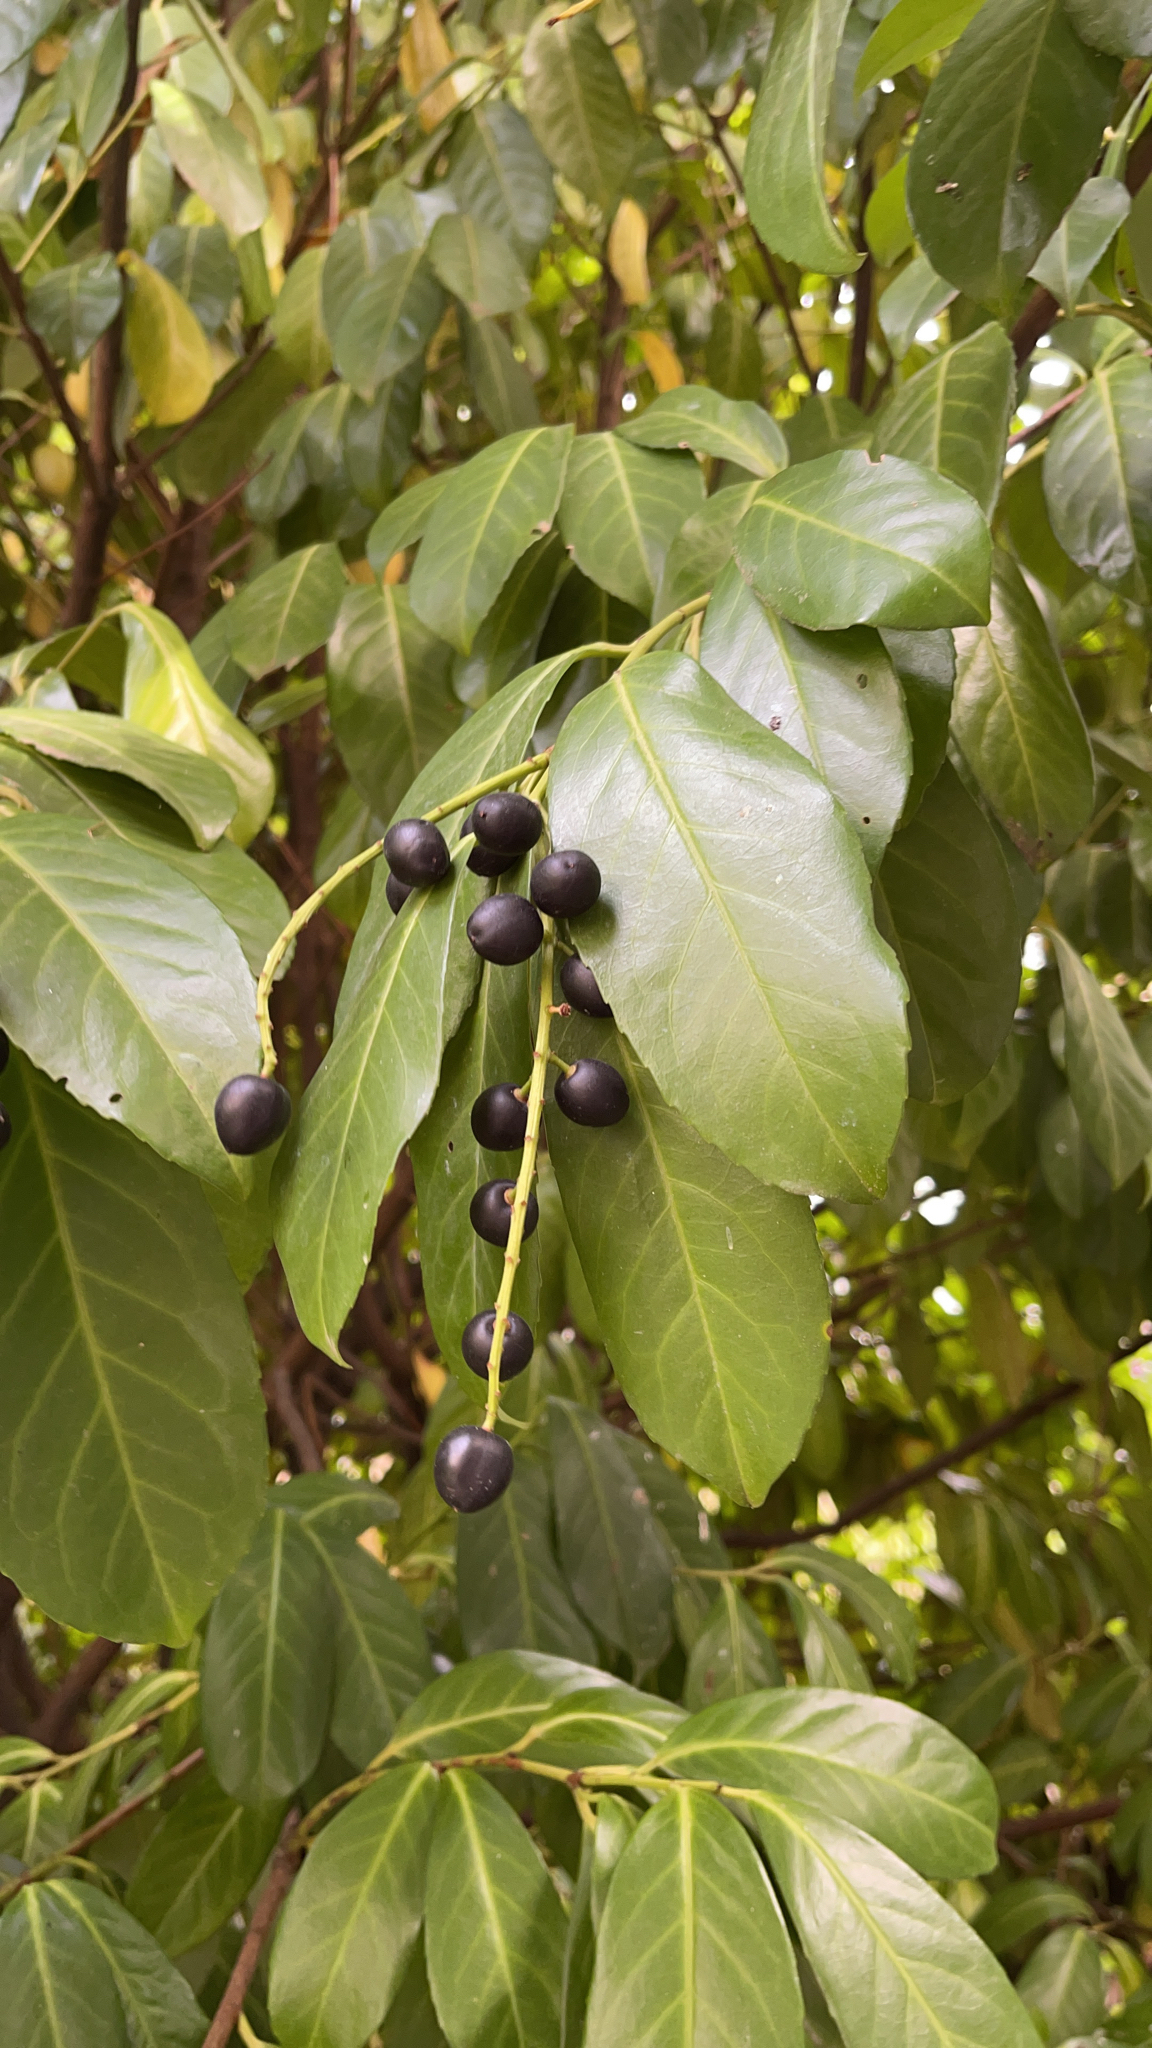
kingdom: Plantae
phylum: Tracheophyta
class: Magnoliopsida
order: Rosales
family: Rosaceae
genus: Prunus
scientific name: Prunus laurocerasus
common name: Cherry laurel
